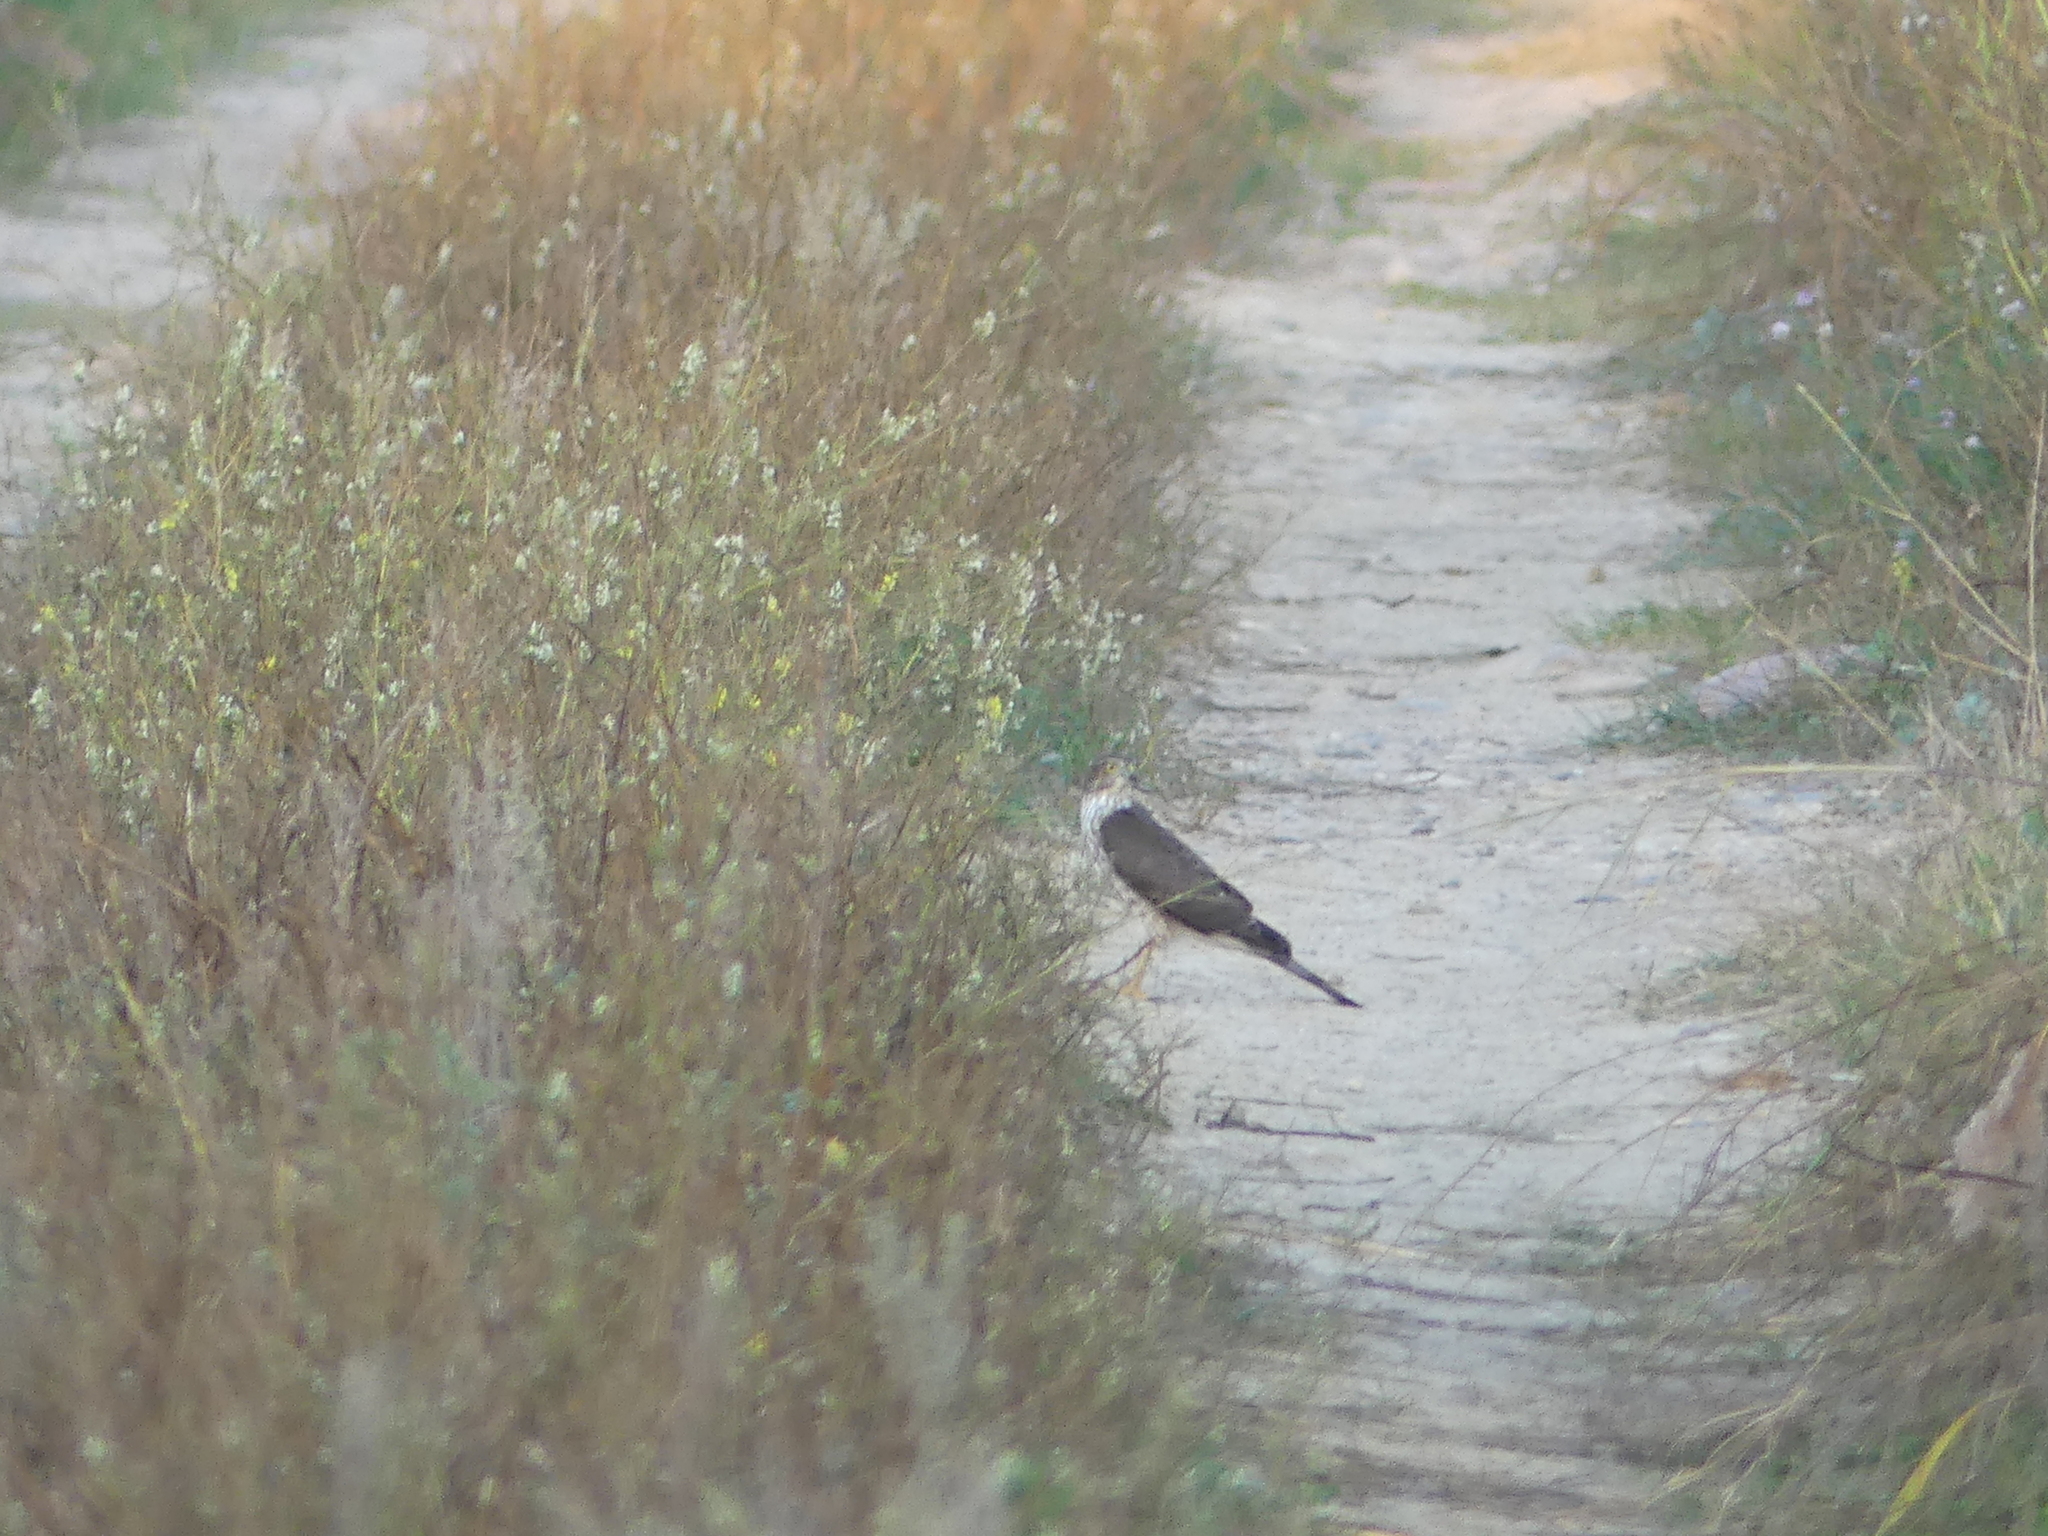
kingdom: Animalia
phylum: Chordata
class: Aves
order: Accipitriformes
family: Accipitridae
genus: Accipiter
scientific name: Accipiter striatus
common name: Sharp-shinned hawk
